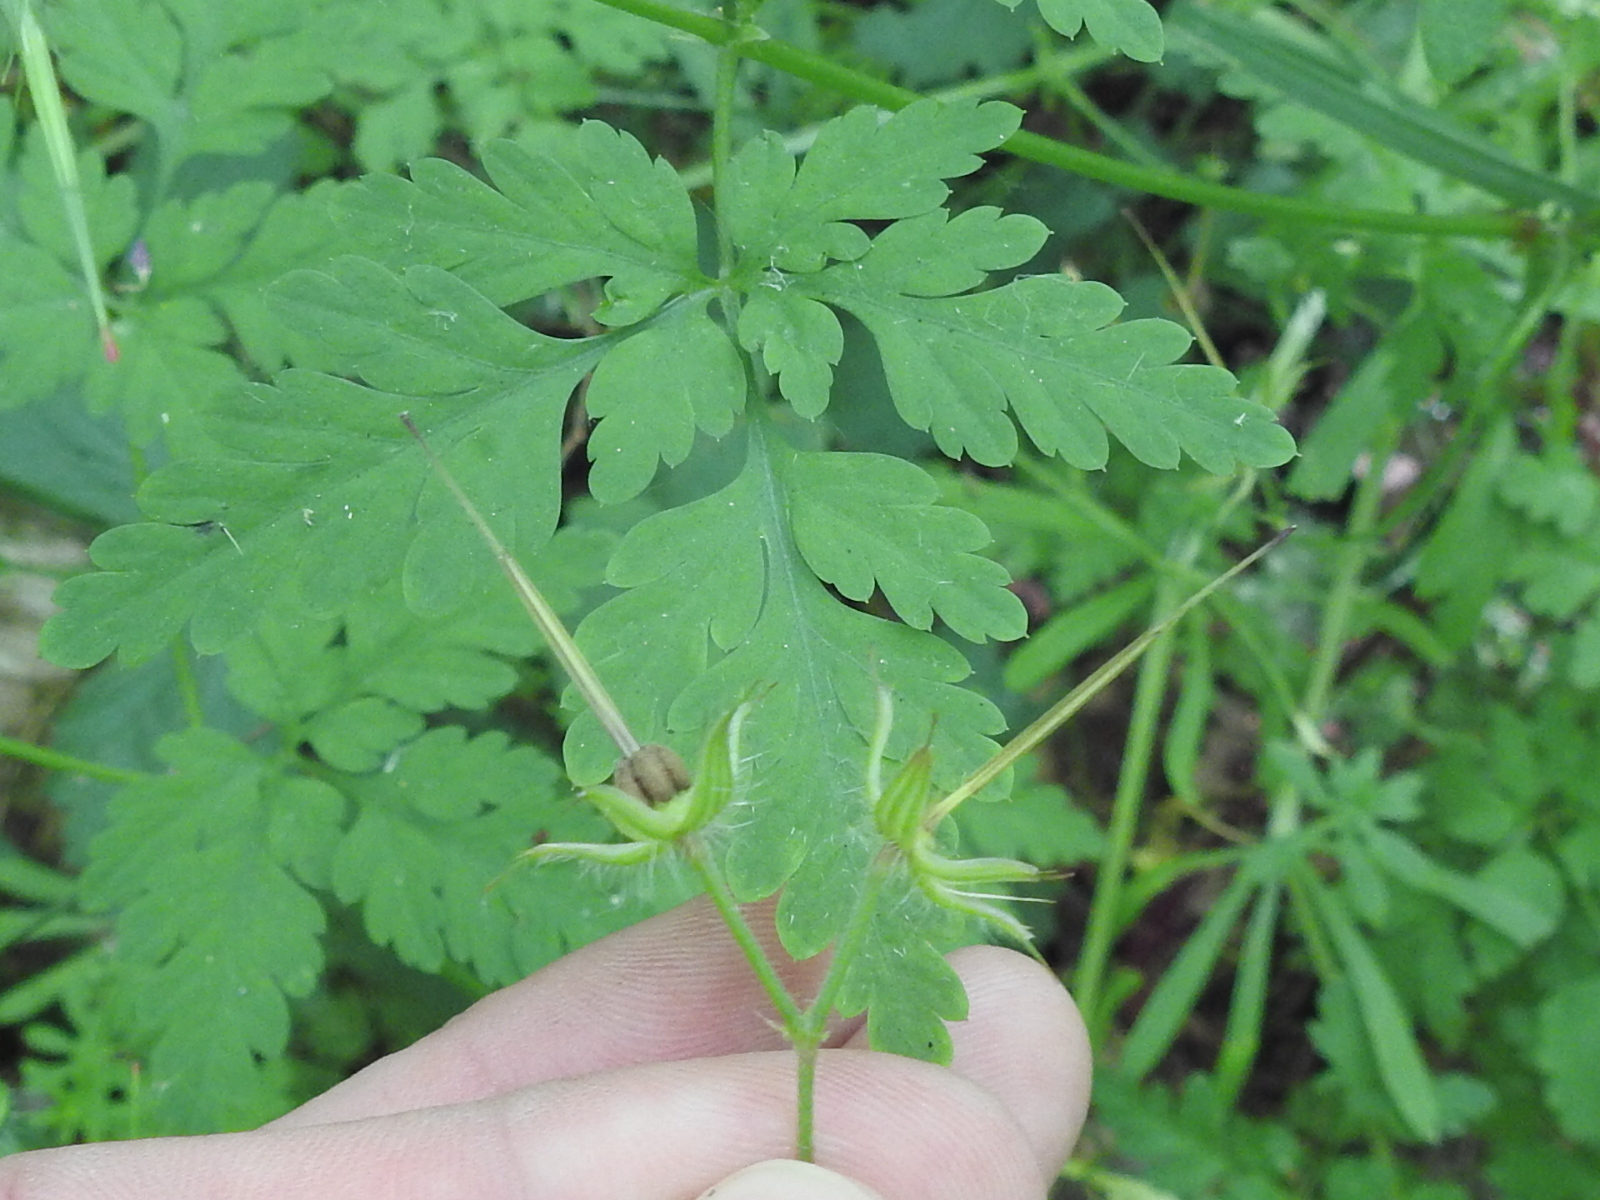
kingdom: Plantae
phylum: Tracheophyta
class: Magnoliopsida
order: Geraniales
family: Geraniaceae
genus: Geranium
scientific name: Geranium robertianum
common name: Herb-robert
